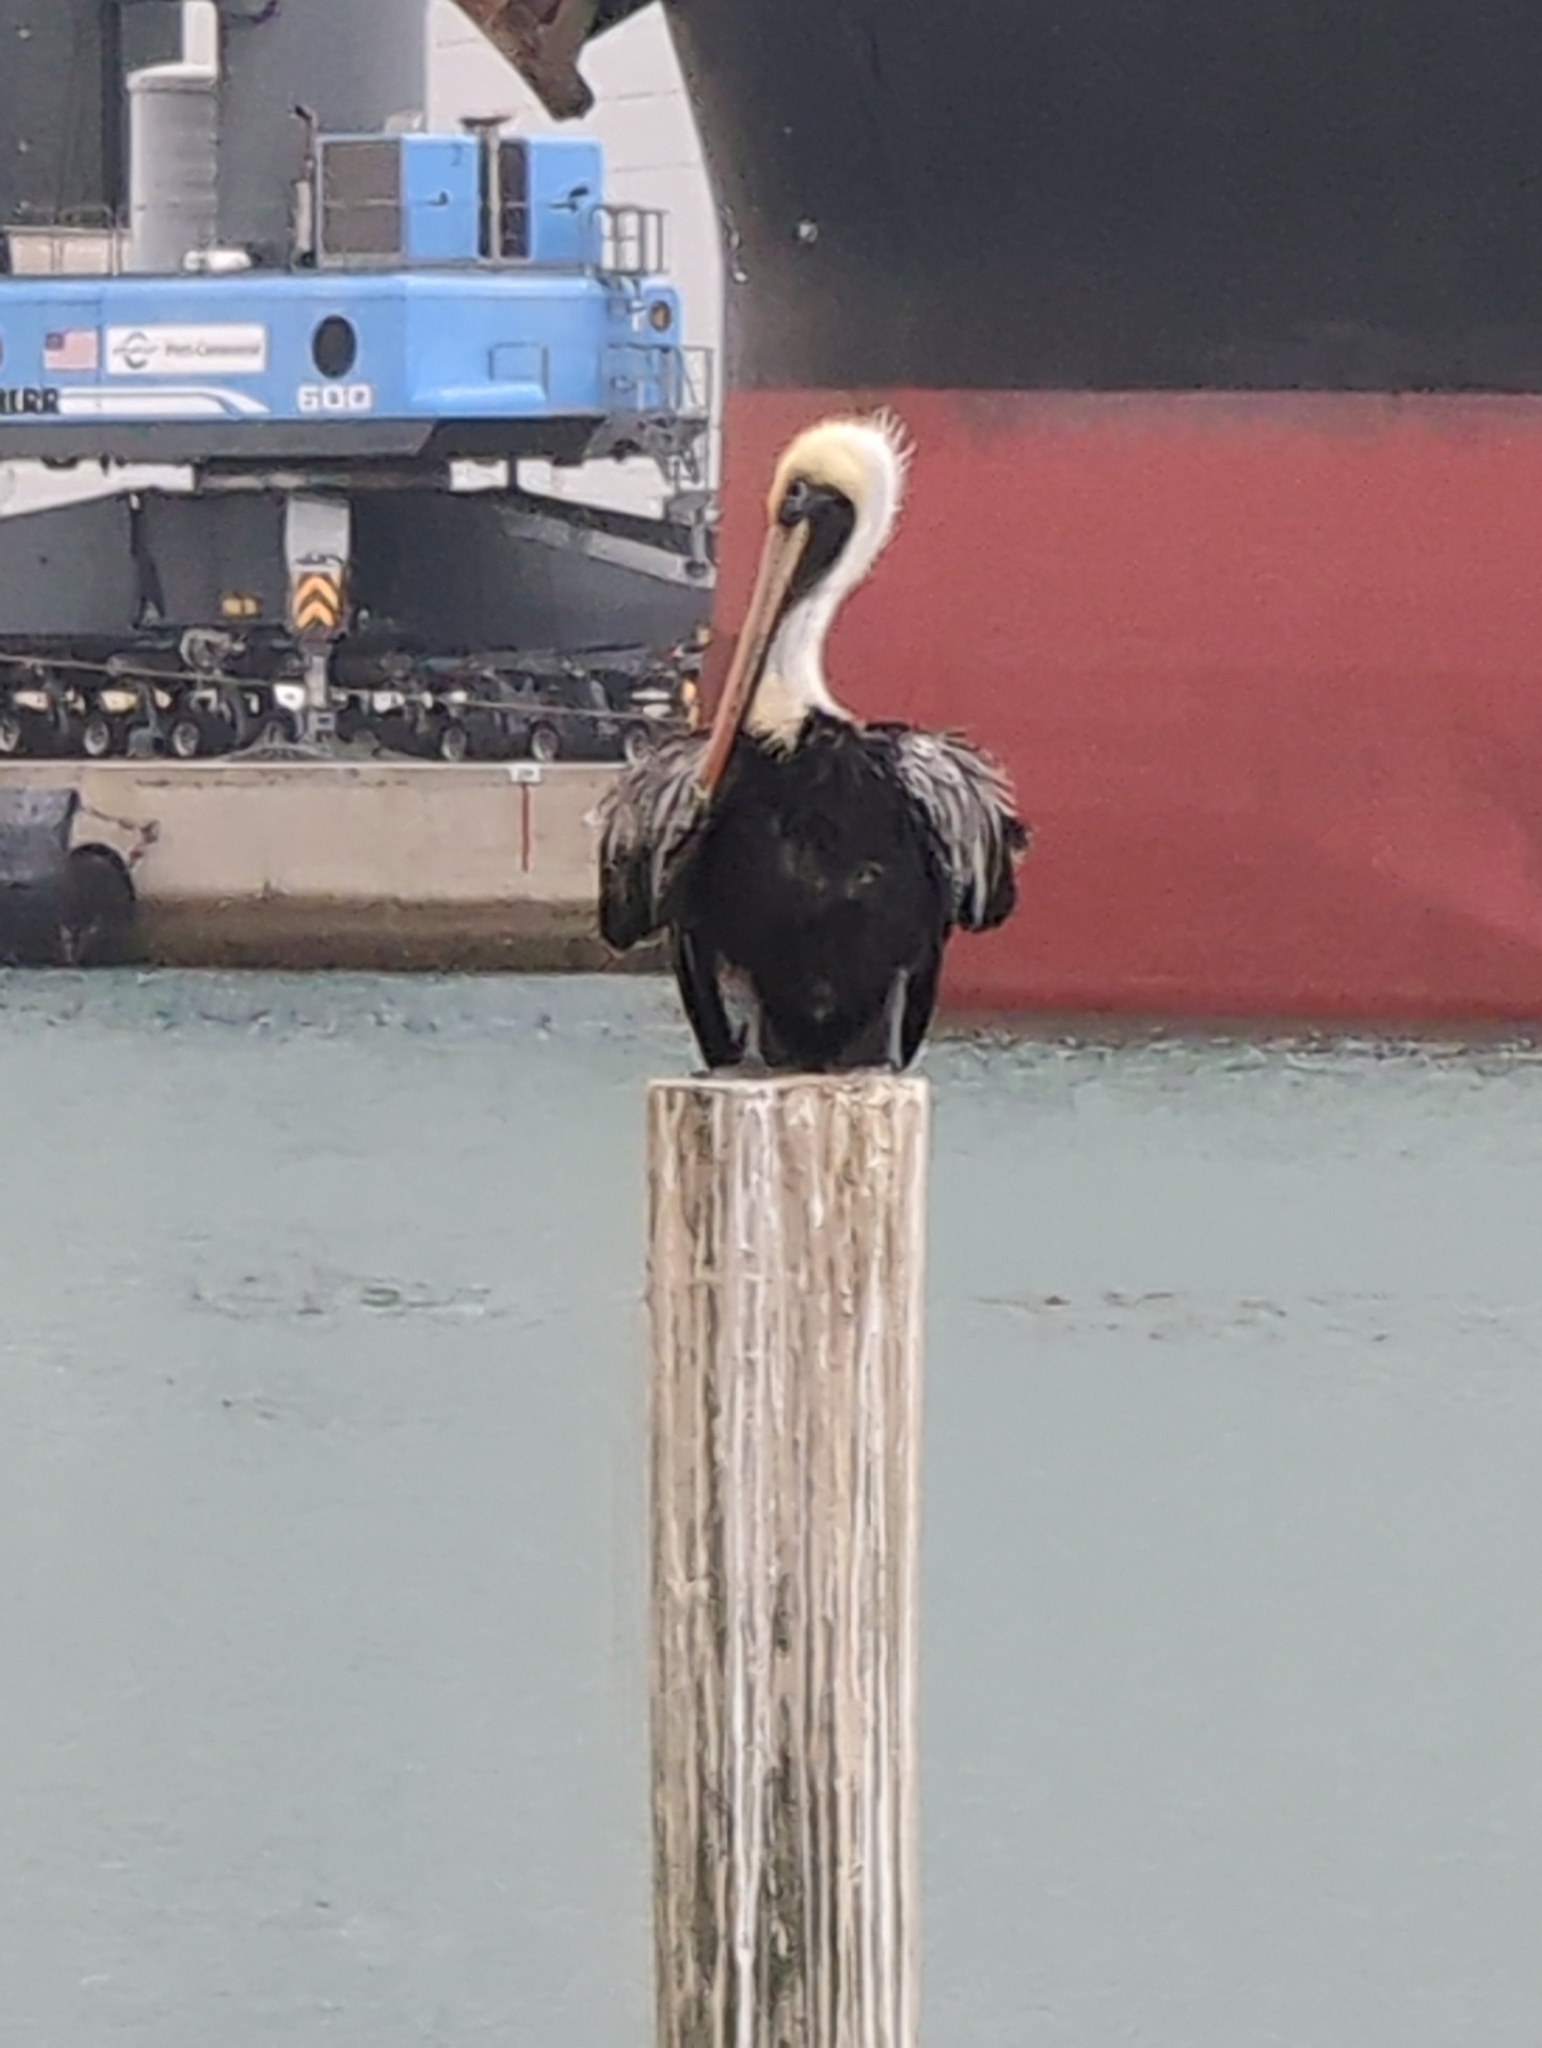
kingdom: Animalia
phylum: Chordata
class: Aves
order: Pelecaniformes
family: Pelecanidae
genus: Pelecanus
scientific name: Pelecanus occidentalis
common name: Brown pelican
